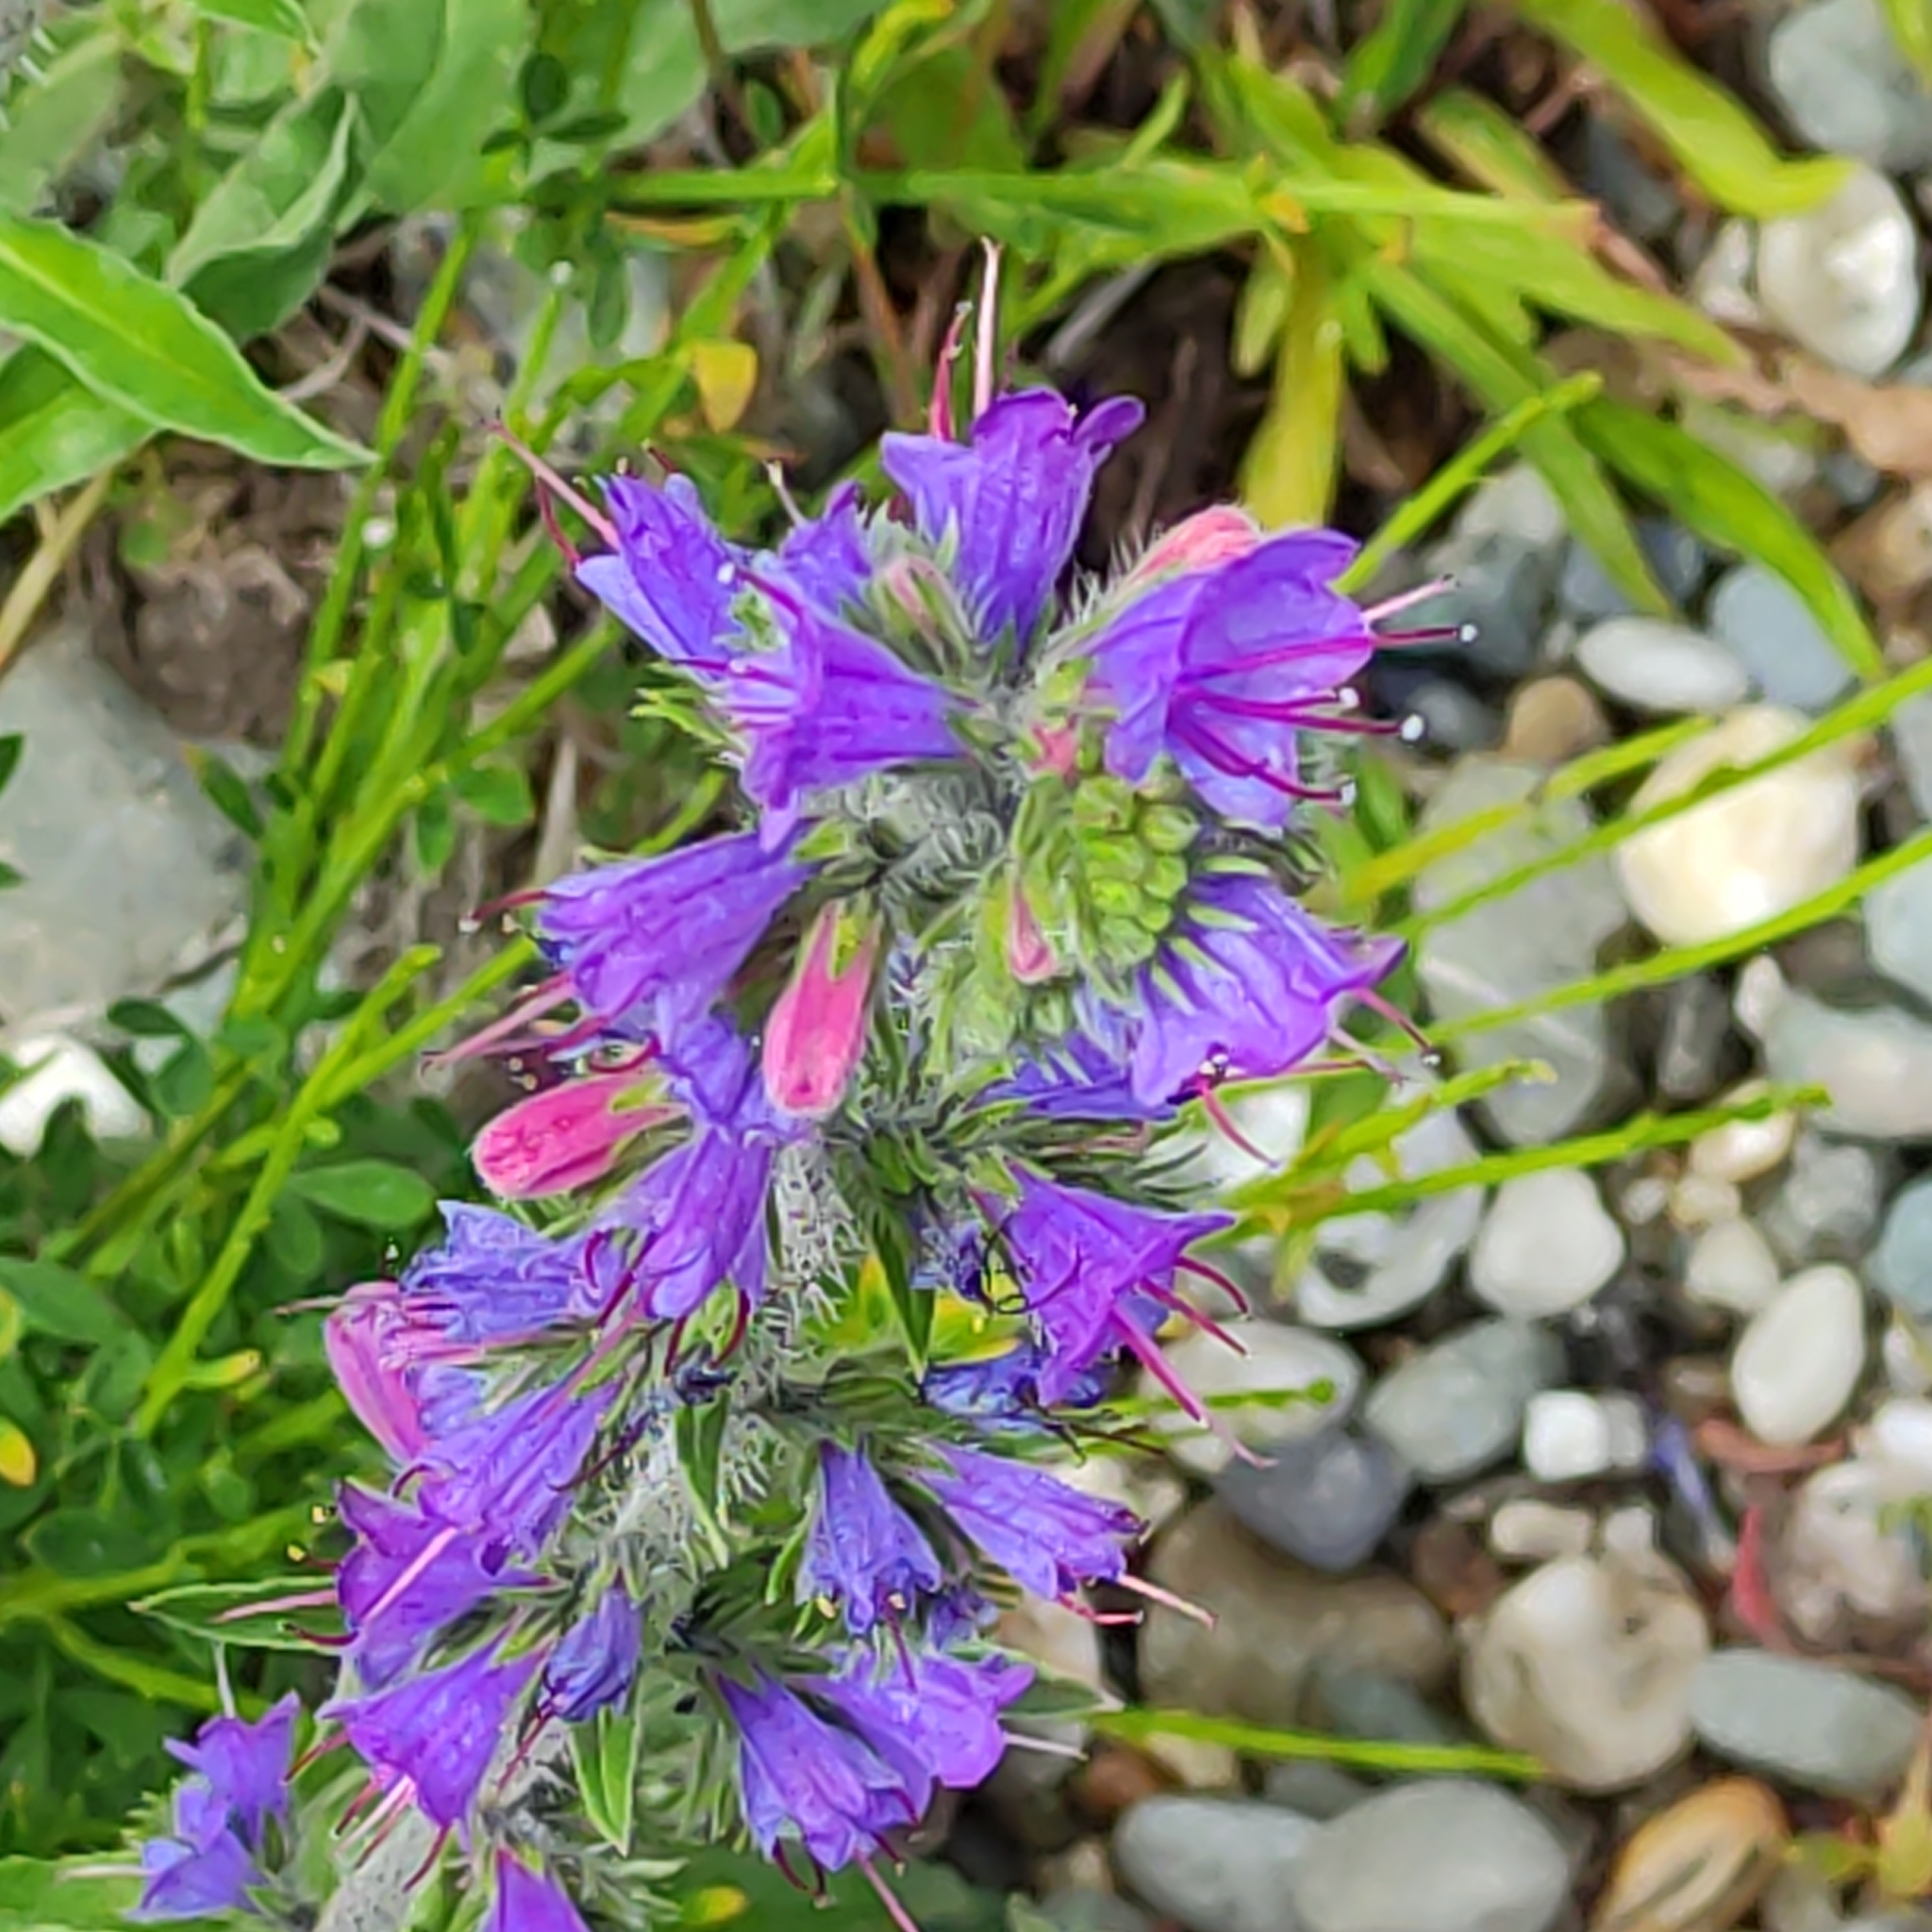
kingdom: Plantae
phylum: Tracheophyta
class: Magnoliopsida
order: Boraginales
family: Boraginaceae
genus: Echium
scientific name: Echium vulgare
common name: Common viper's bugloss
